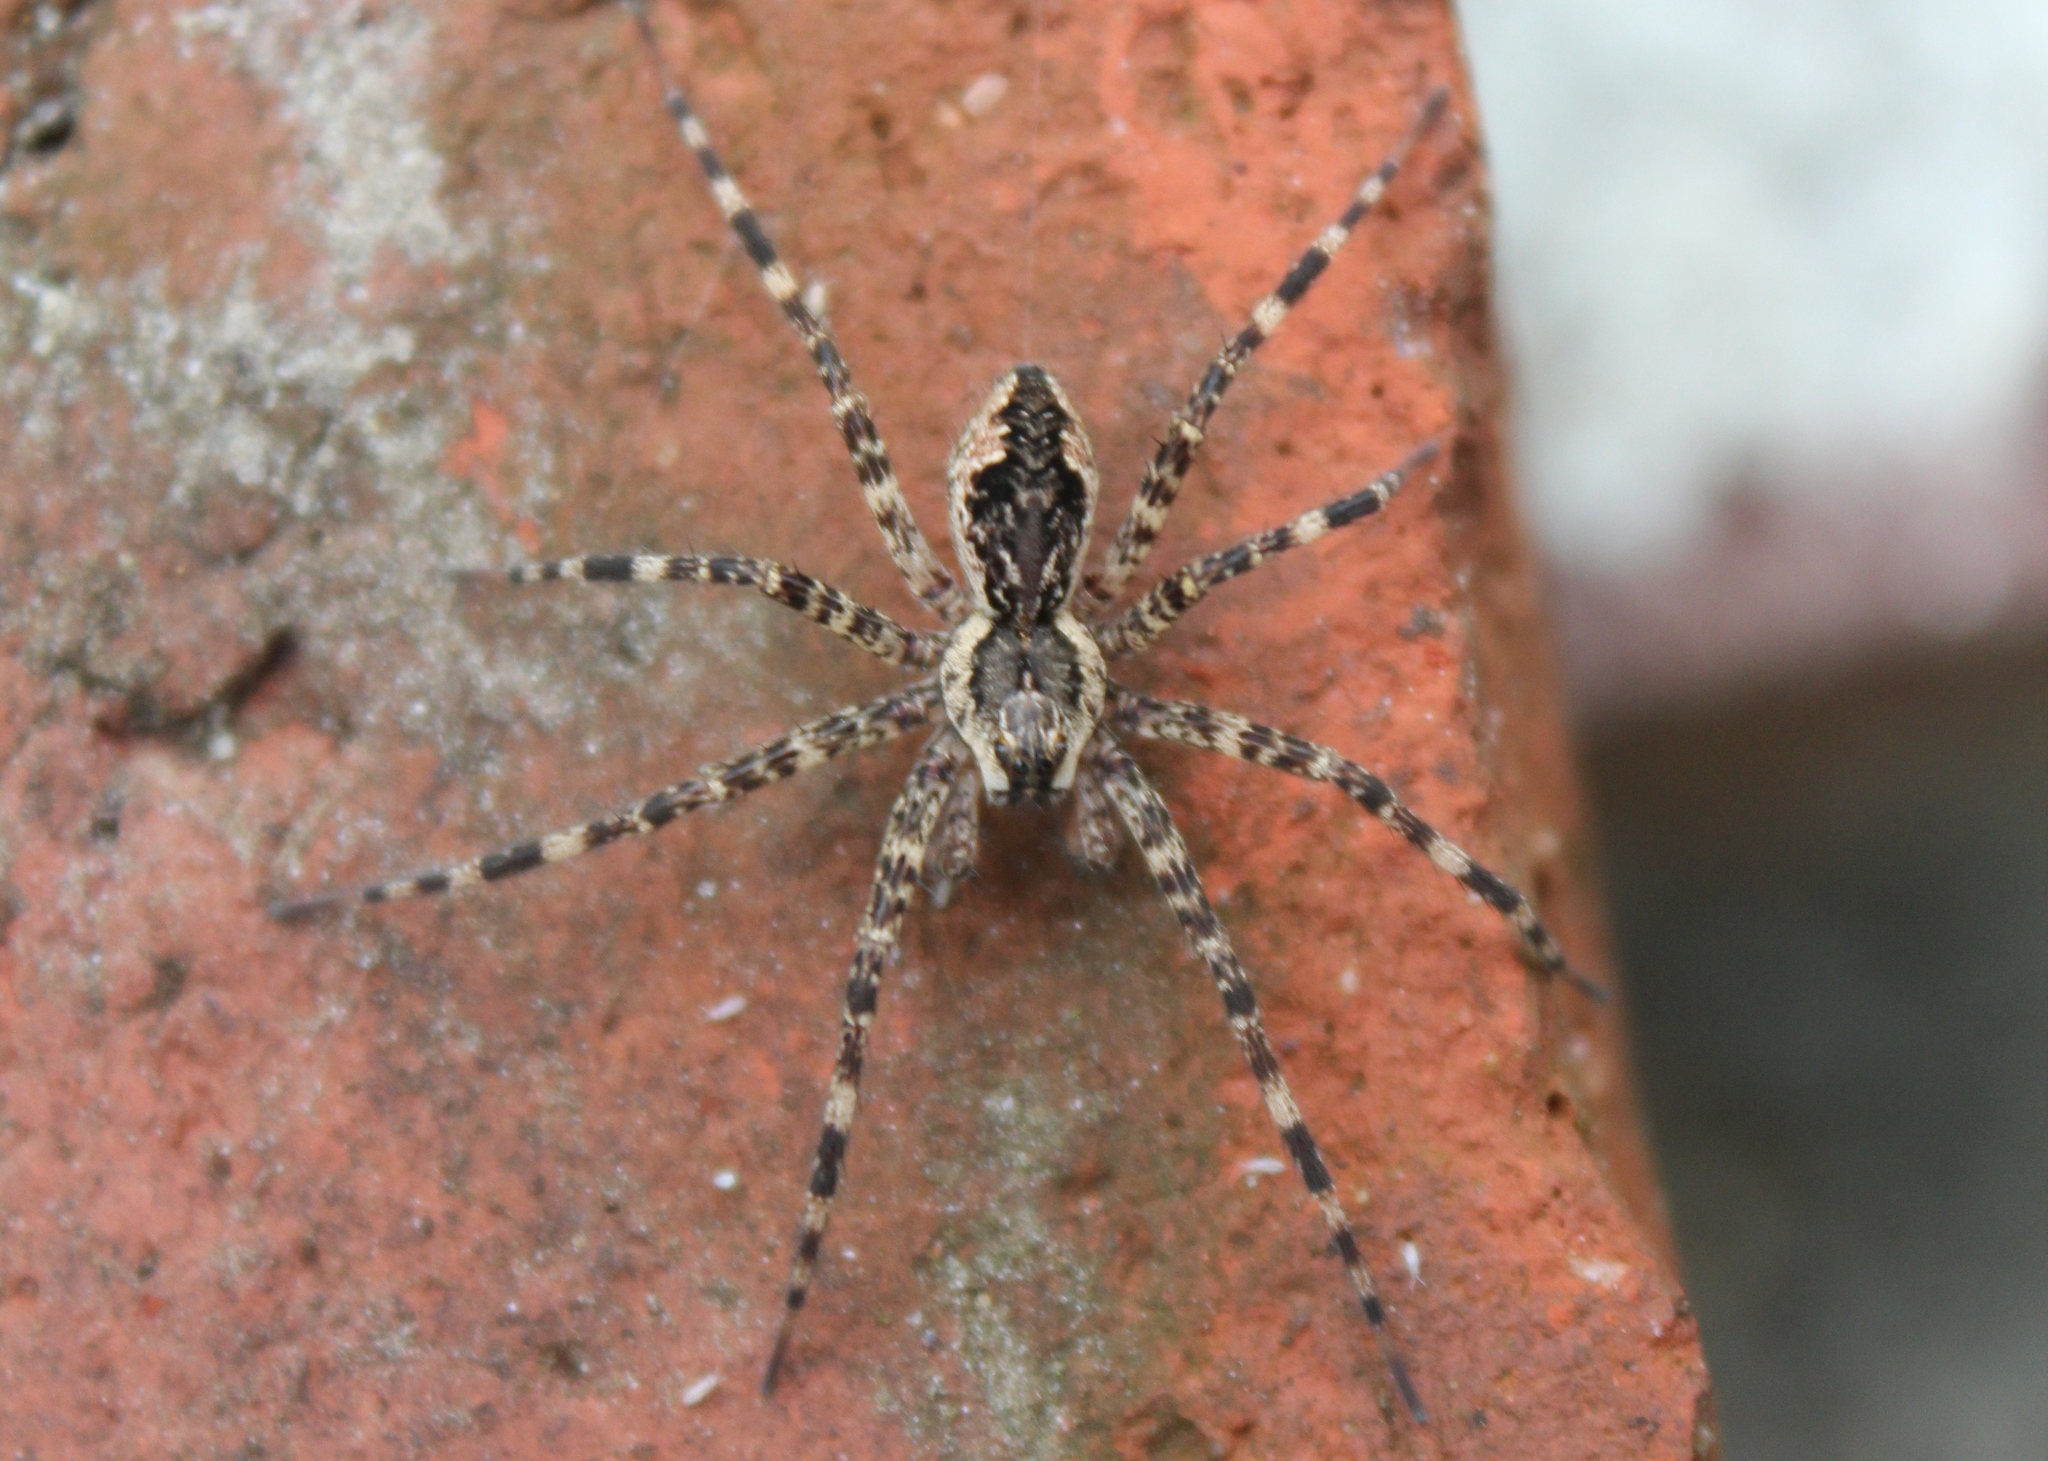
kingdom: Animalia
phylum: Arthropoda
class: Arachnida
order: Araneae
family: Pisauridae
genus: Dolomedes
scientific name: Dolomedes tenebrosus
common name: Dark fishing spider
